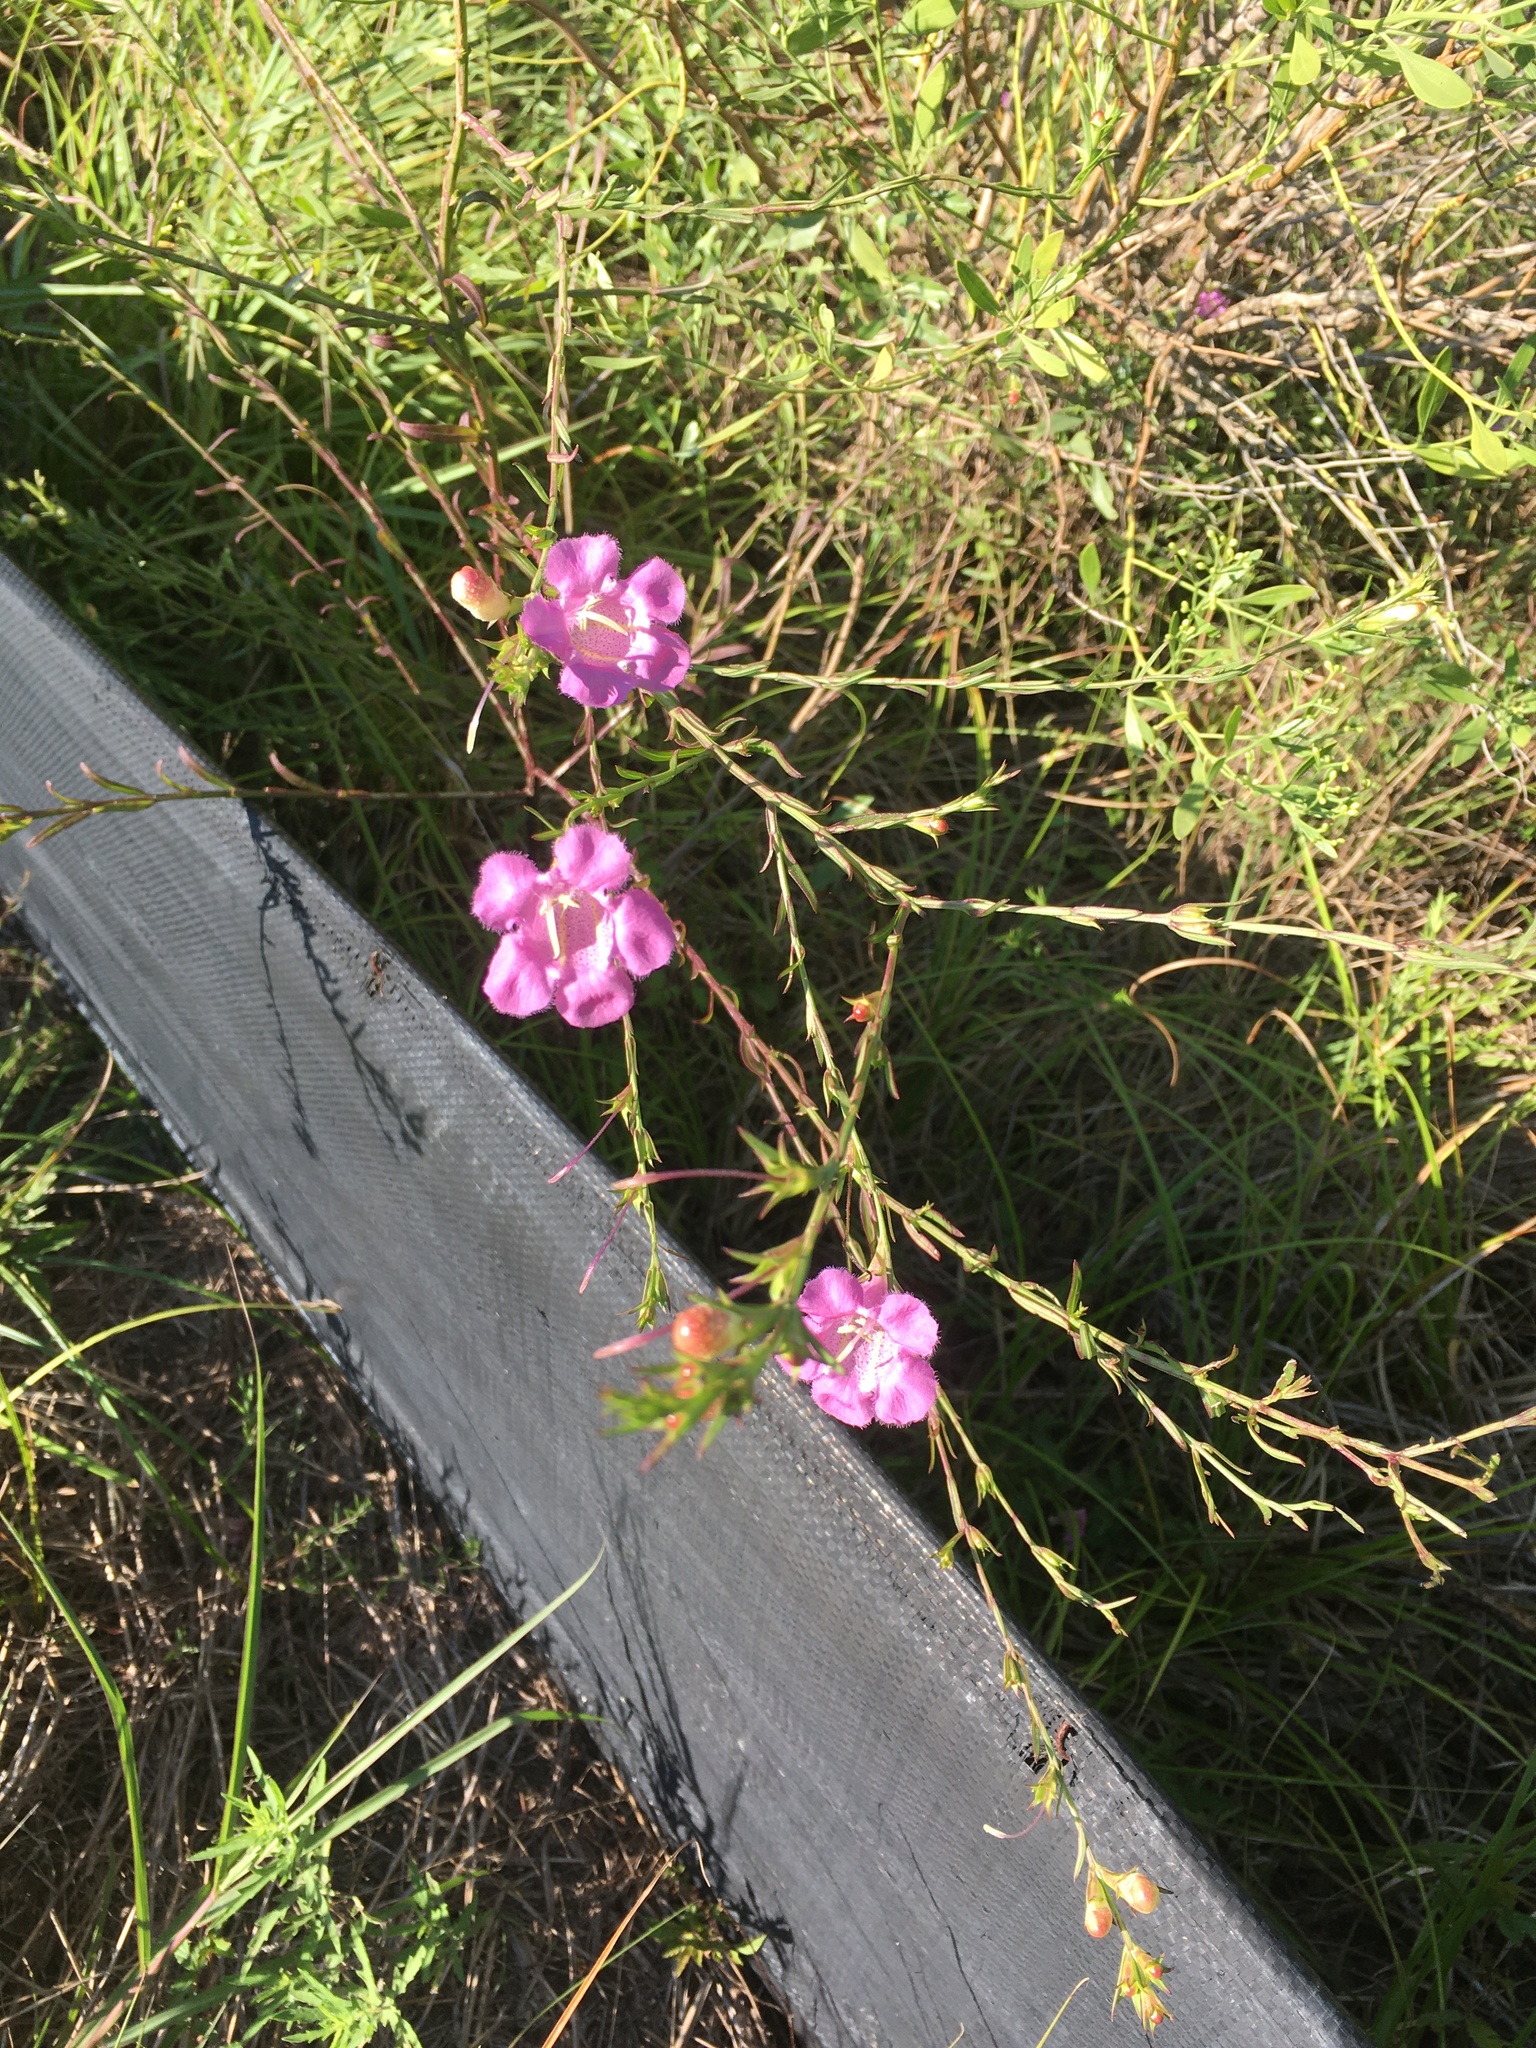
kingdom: Plantae
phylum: Tracheophyta
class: Magnoliopsida
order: Lamiales
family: Orobanchaceae
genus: Agalinis
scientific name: Agalinis heterophylla
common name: Prairie agalinis
